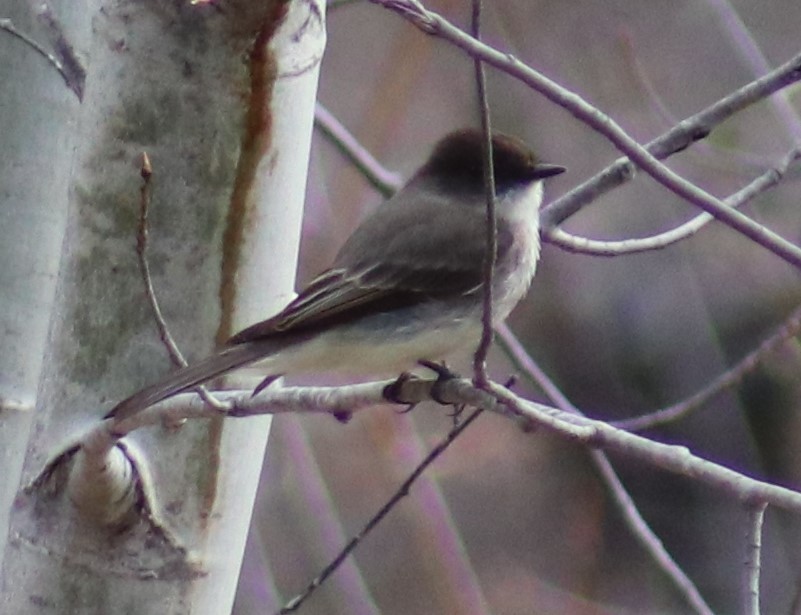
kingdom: Animalia
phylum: Chordata
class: Aves
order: Passeriformes
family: Tyrannidae
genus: Sayornis
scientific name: Sayornis phoebe
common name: Eastern phoebe
